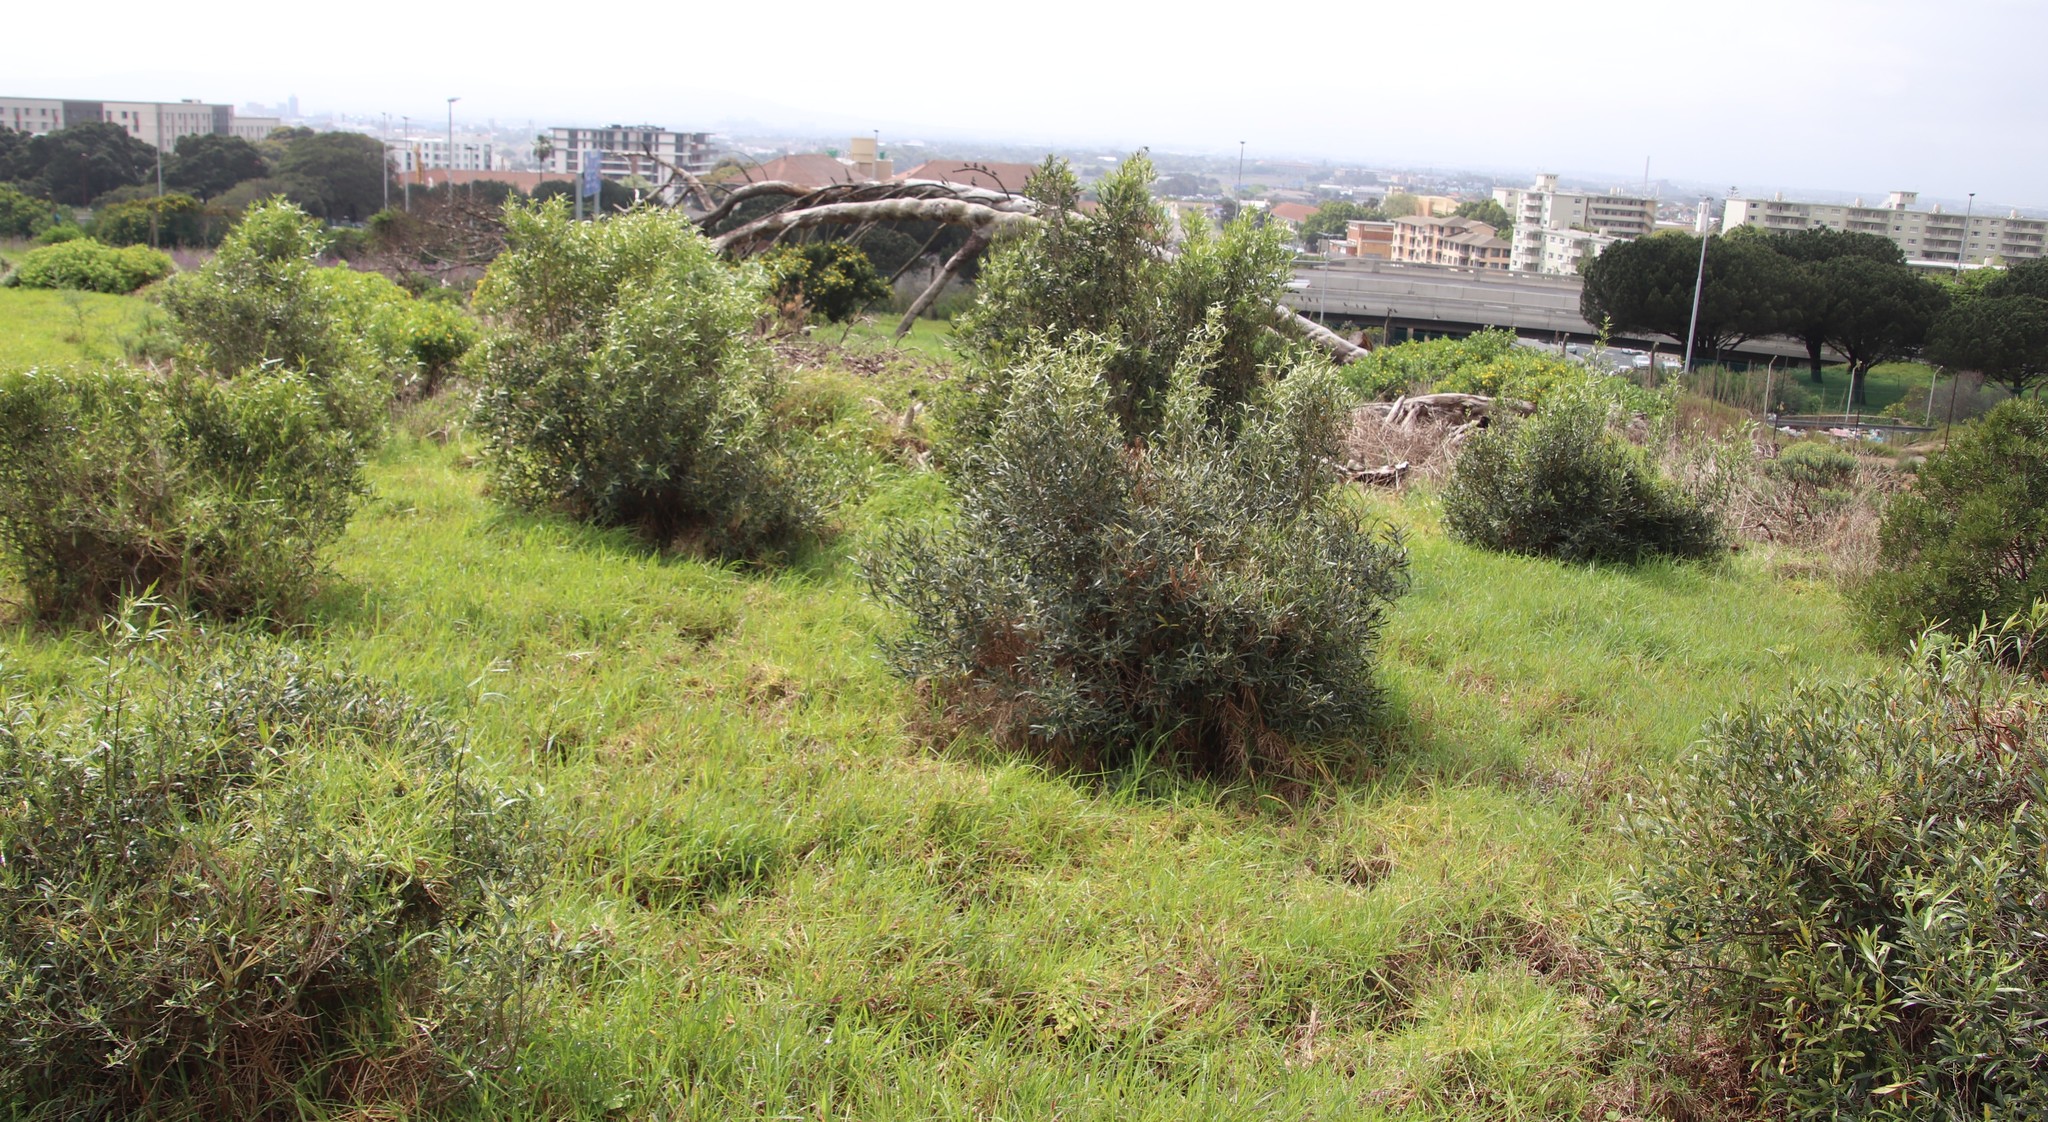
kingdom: Plantae
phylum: Tracheophyta
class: Magnoliopsida
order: Lamiales
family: Oleaceae
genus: Olea
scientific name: Olea europaea
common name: Olive
